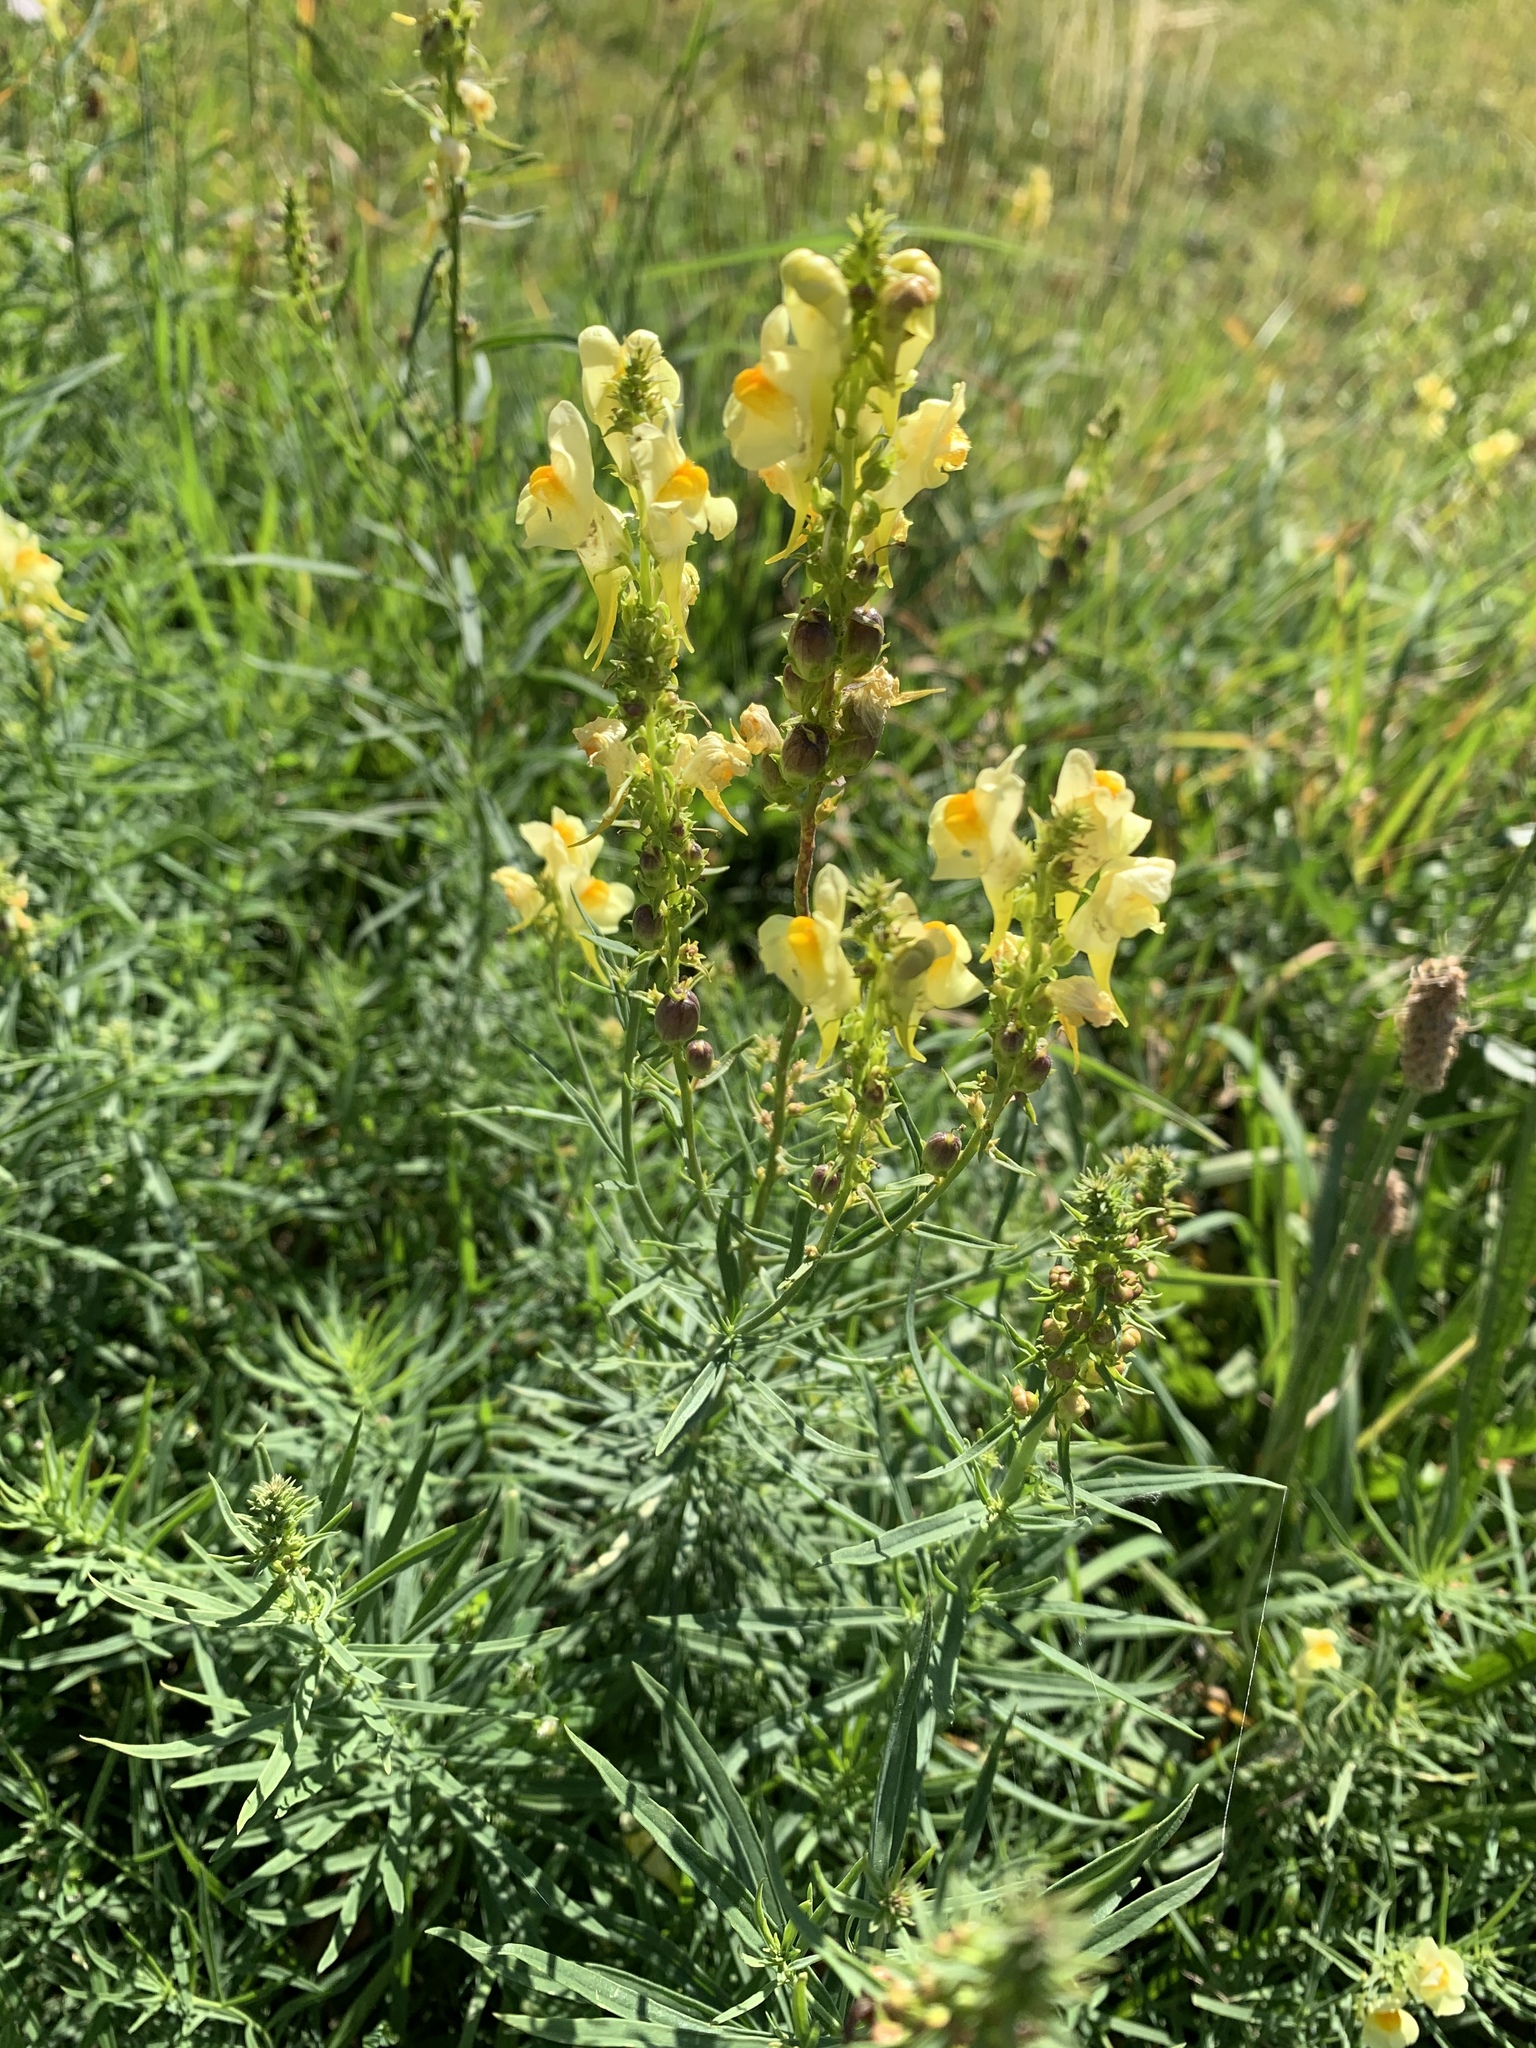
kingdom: Plantae
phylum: Tracheophyta
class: Magnoliopsida
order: Lamiales
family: Plantaginaceae
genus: Linaria
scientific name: Linaria vulgaris
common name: Butter and eggs
